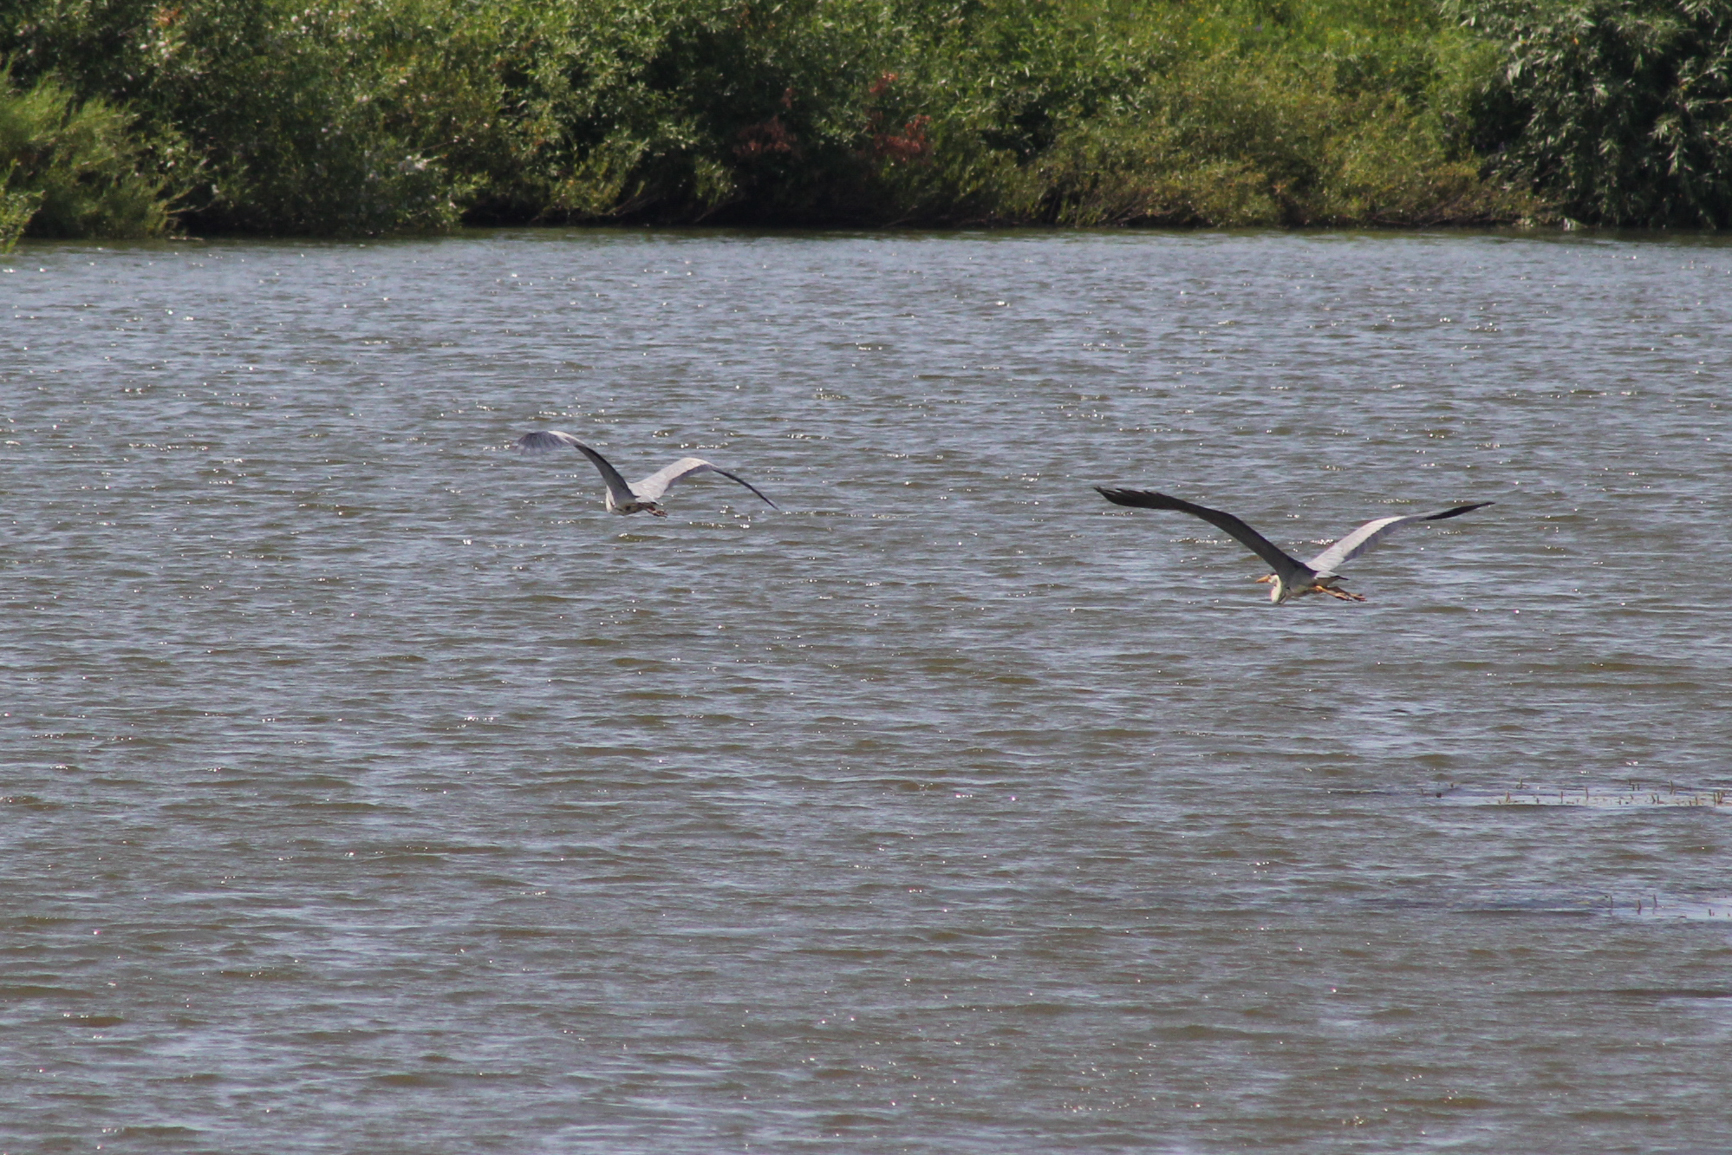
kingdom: Animalia
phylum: Chordata
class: Aves
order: Pelecaniformes
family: Ardeidae
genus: Ardea
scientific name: Ardea cinerea
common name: Grey heron
